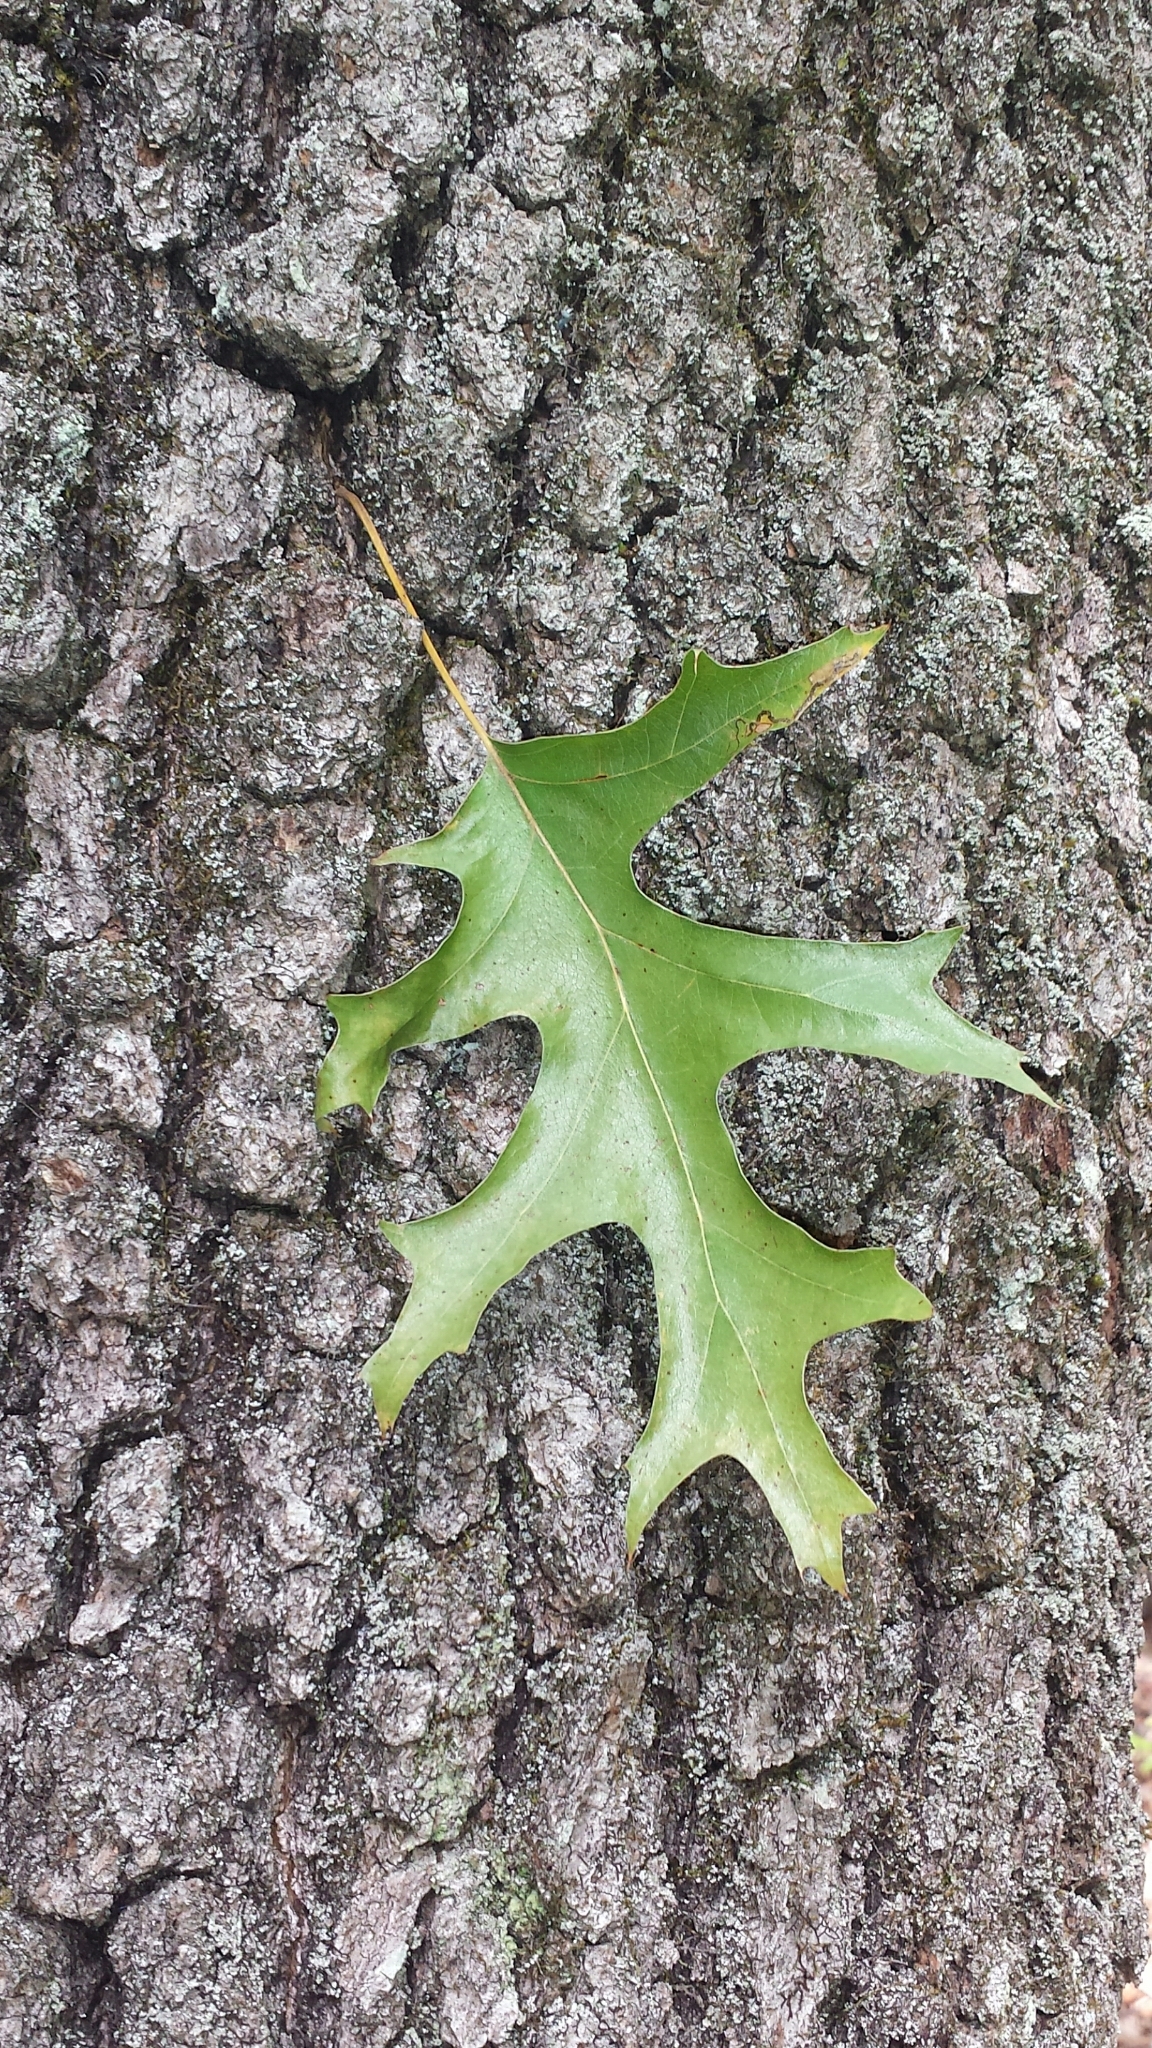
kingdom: Plantae
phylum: Tracheophyta
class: Magnoliopsida
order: Fagales
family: Fagaceae
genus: Quercus
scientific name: Quercus velutina
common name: Black oak
